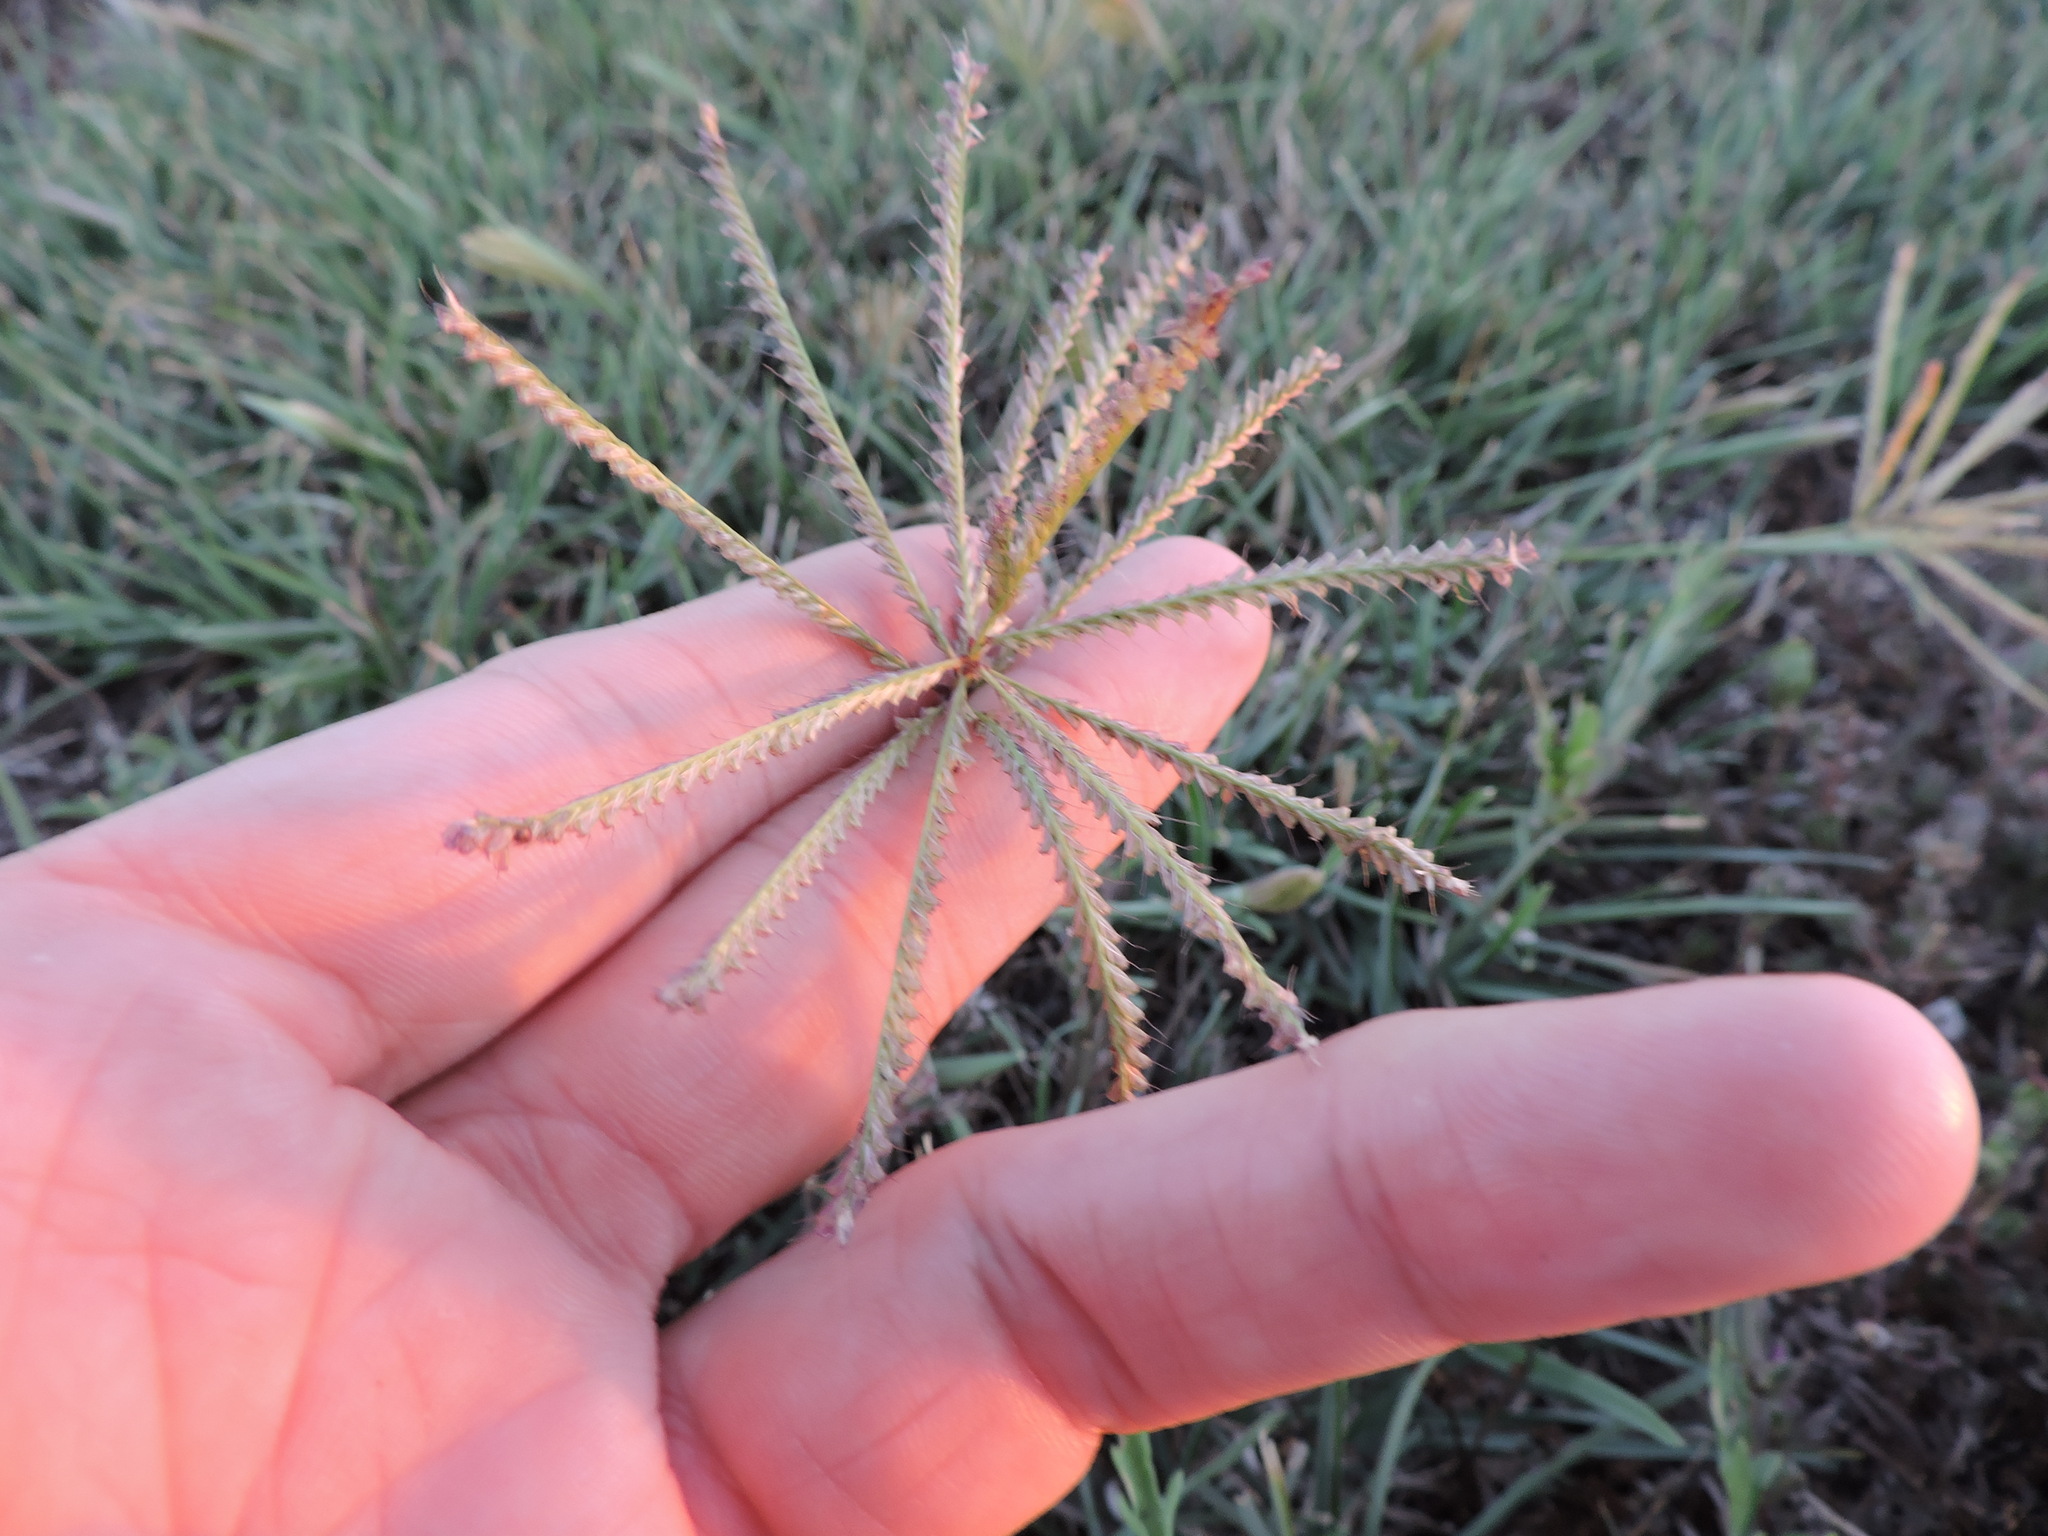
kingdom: Plantae
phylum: Tracheophyta
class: Liliopsida
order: Poales
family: Poaceae
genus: Chloris
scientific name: Chloris verticillata
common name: Tumble windmill grass
